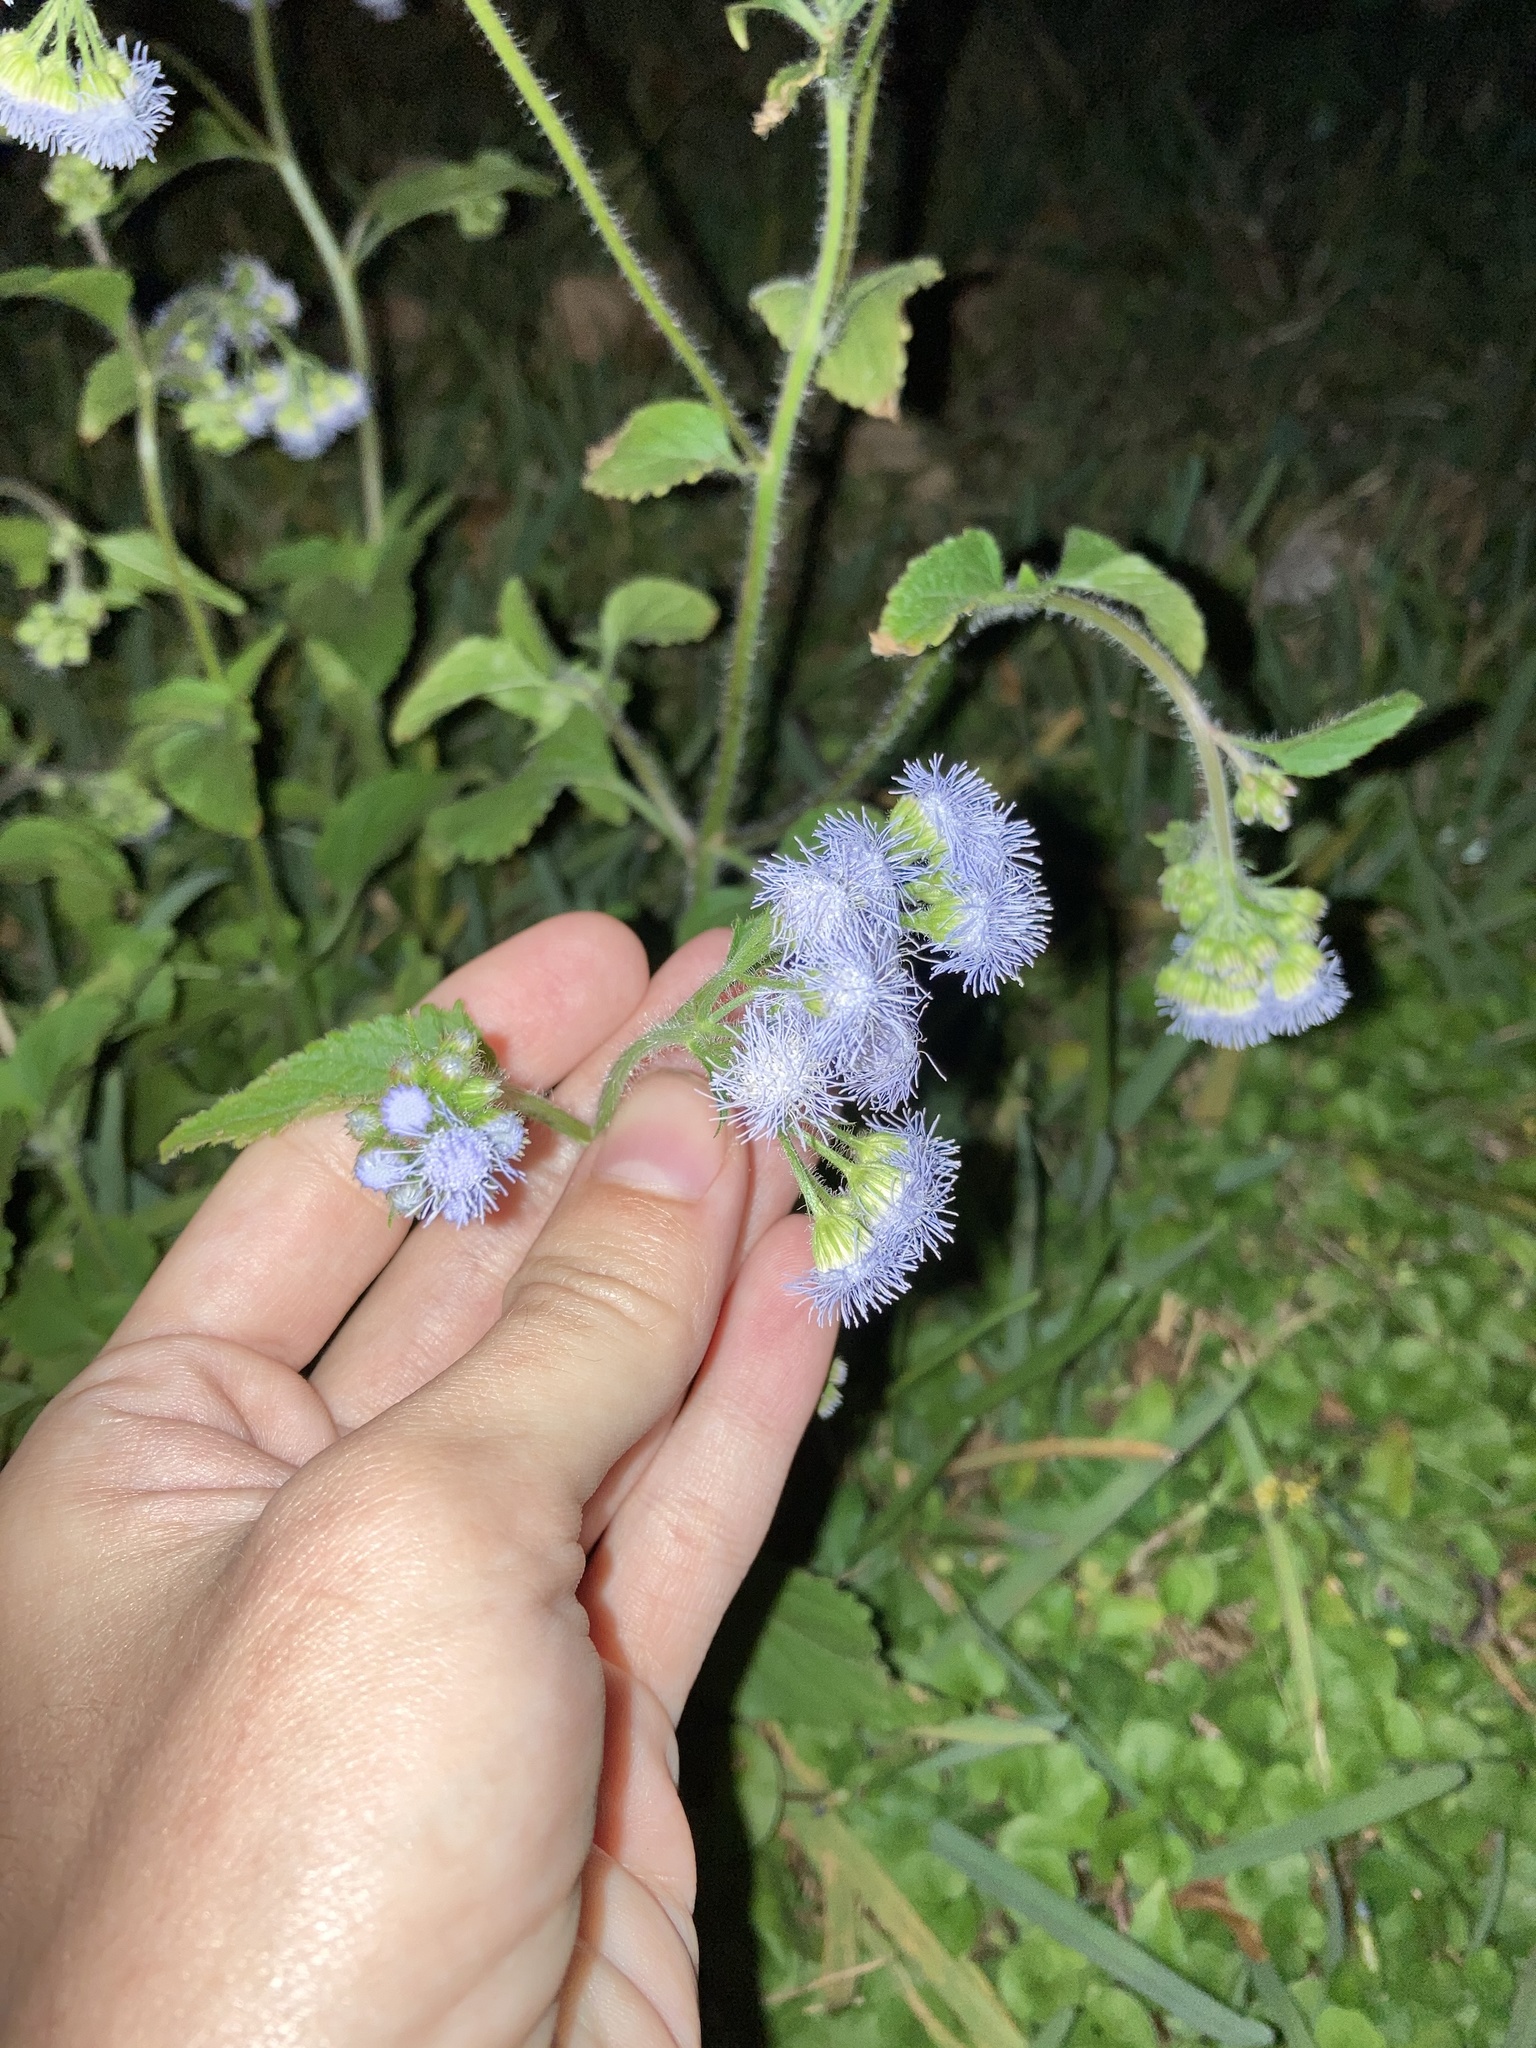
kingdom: Plantae
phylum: Tracheophyta
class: Magnoliopsida
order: Asterales
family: Asteraceae
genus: Ageratum
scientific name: Ageratum houstonianum
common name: Bluemink
